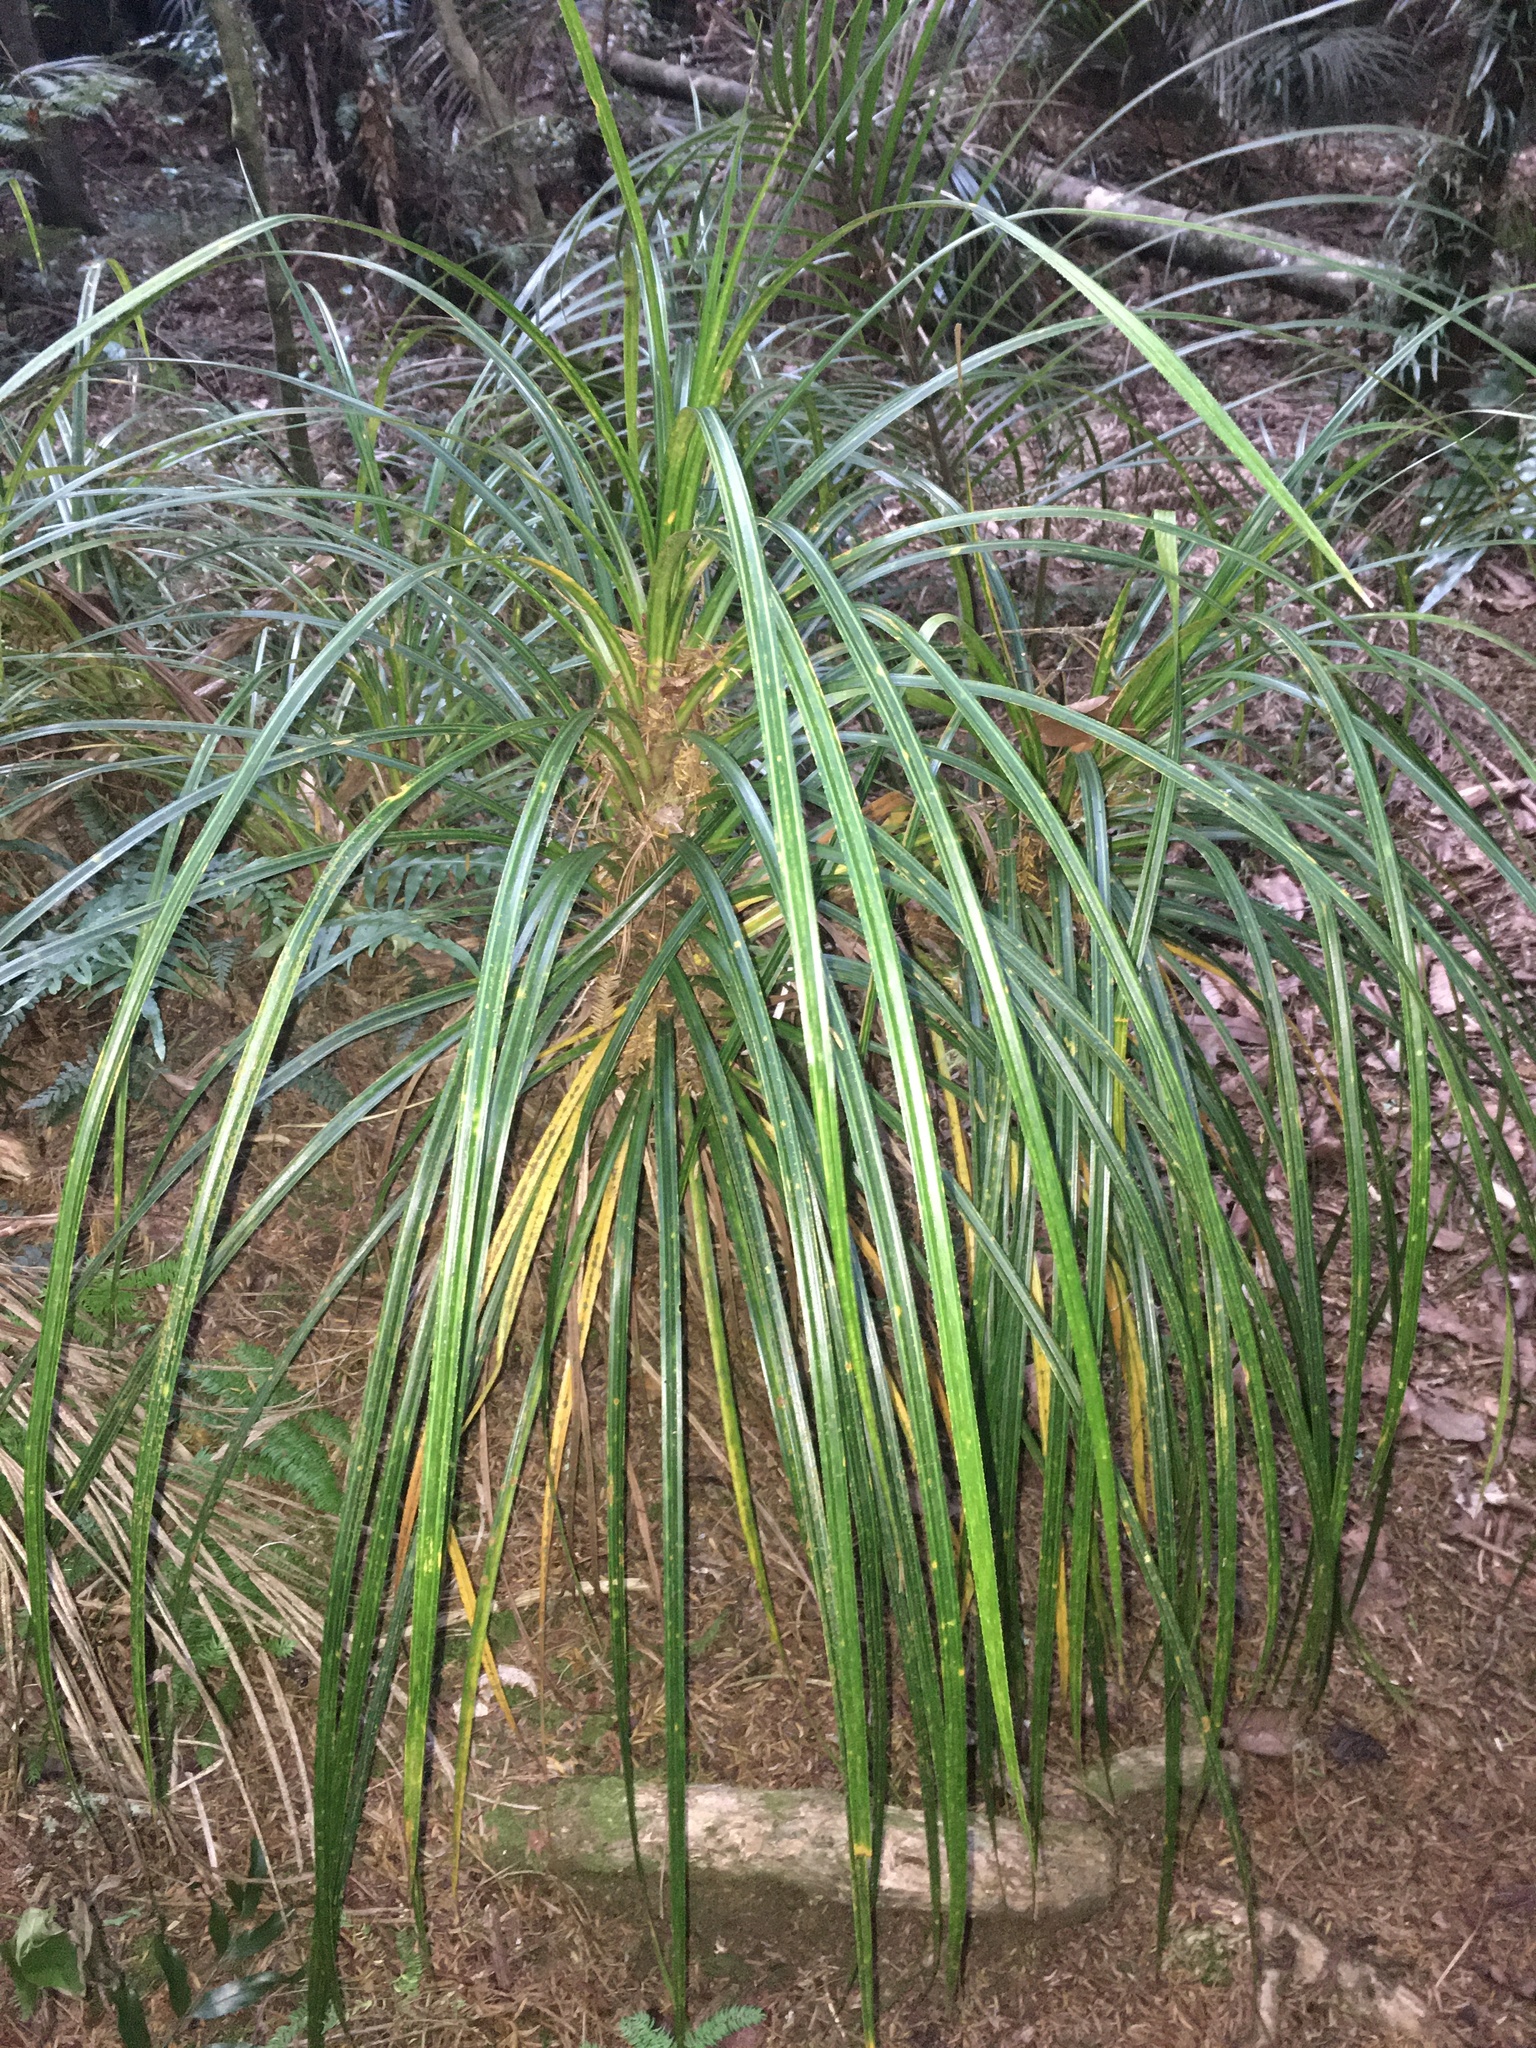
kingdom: Plantae
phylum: Tracheophyta
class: Liliopsida
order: Pandanales
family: Pandanaceae
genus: Freycinetia
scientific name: Freycinetia banksii
